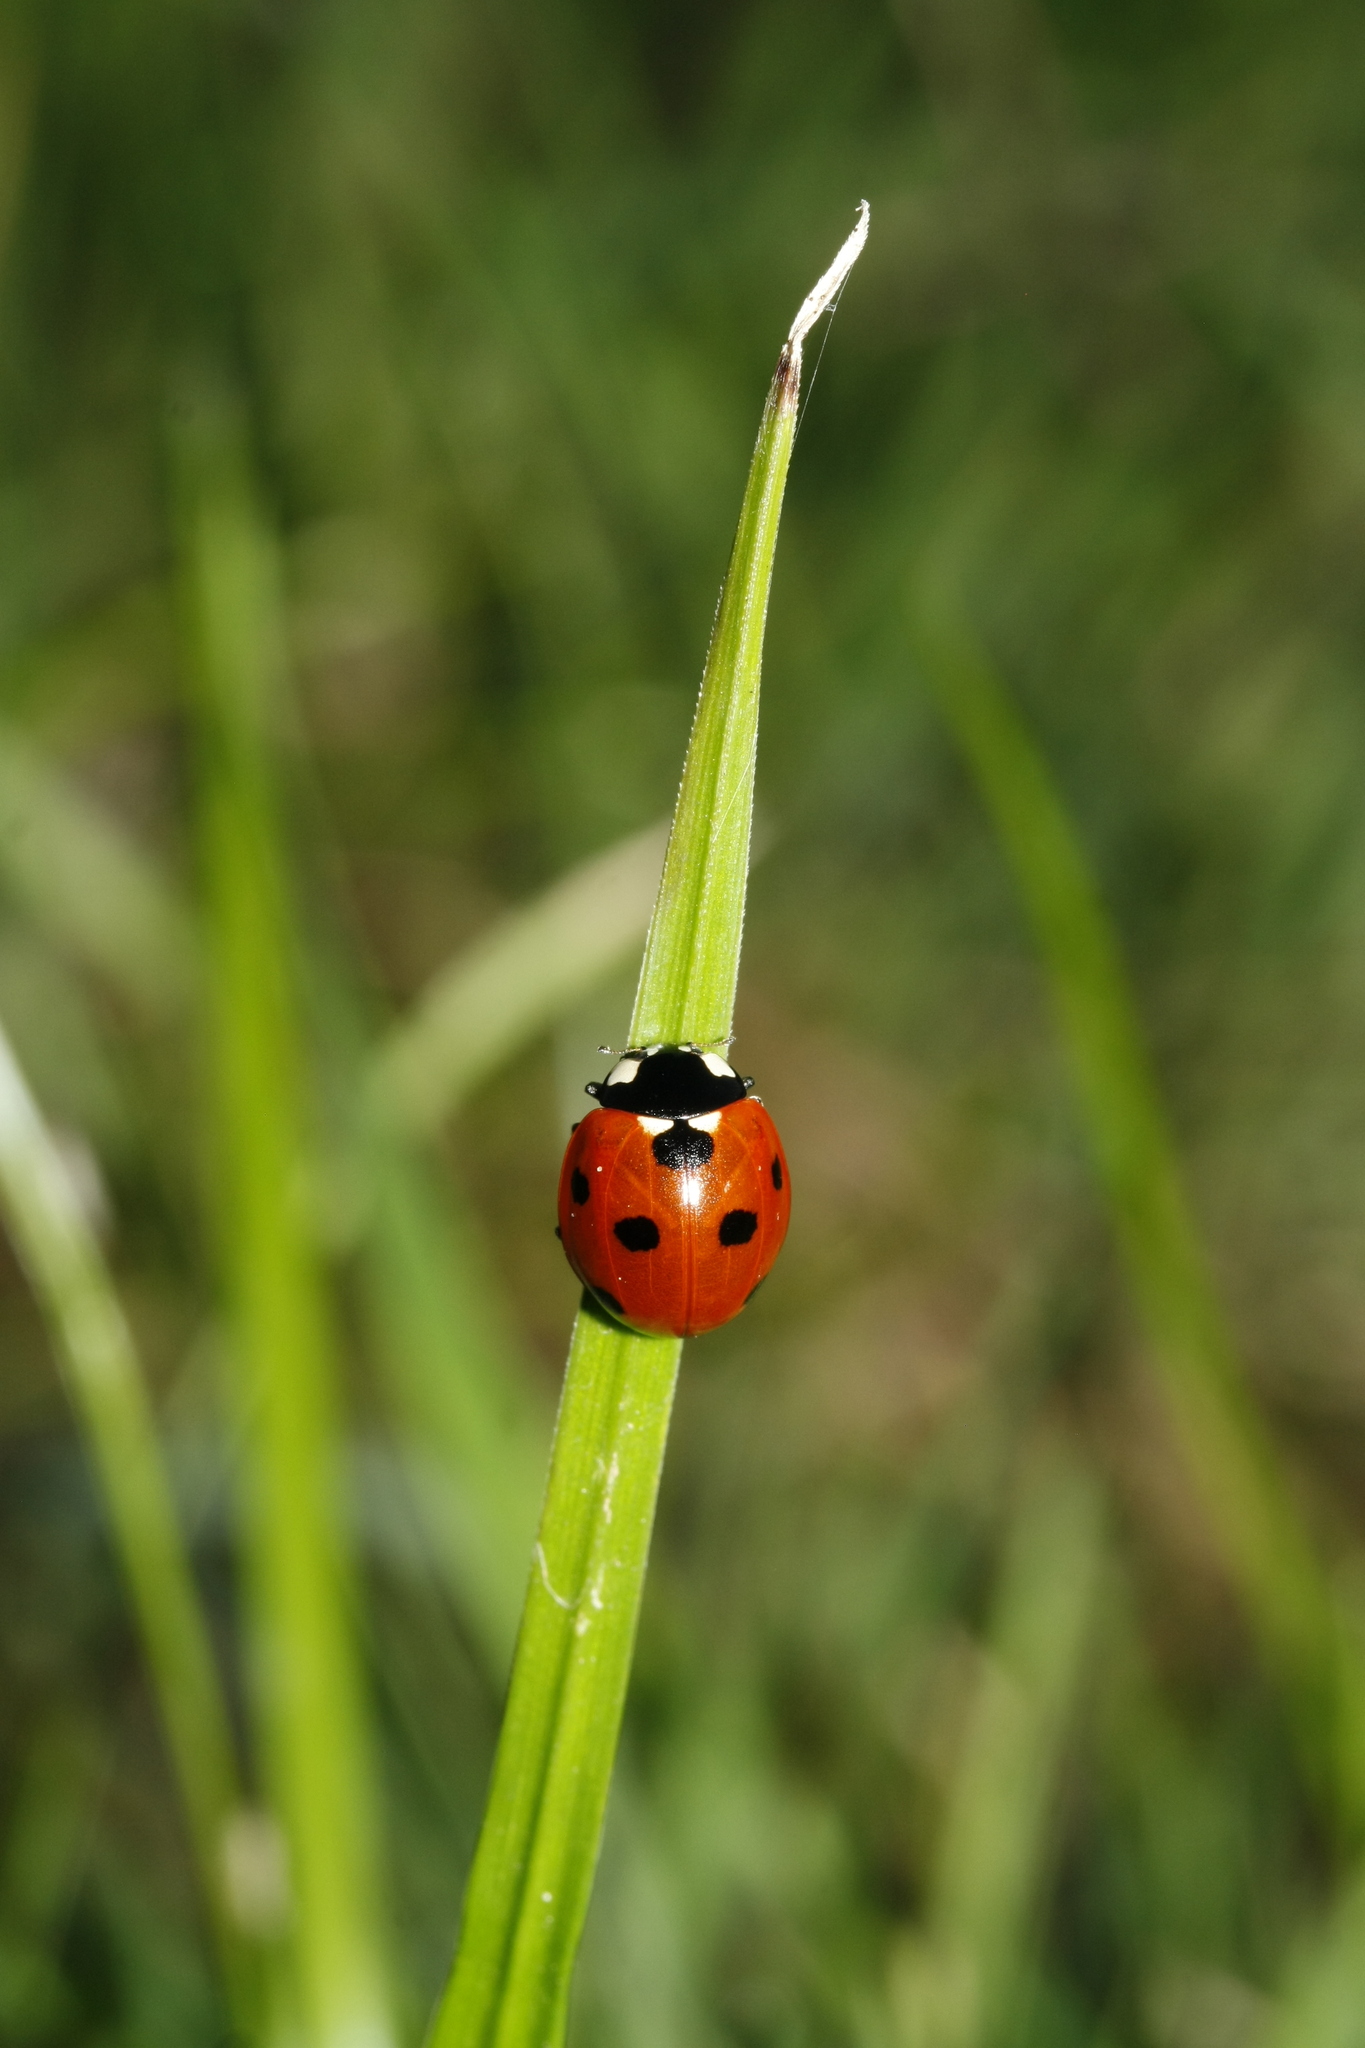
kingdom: Animalia
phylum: Arthropoda
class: Insecta
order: Coleoptera
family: Coccinellidae
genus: Coccinella
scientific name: Coccinella septempunctata
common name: Sevenspotted lady beetle
